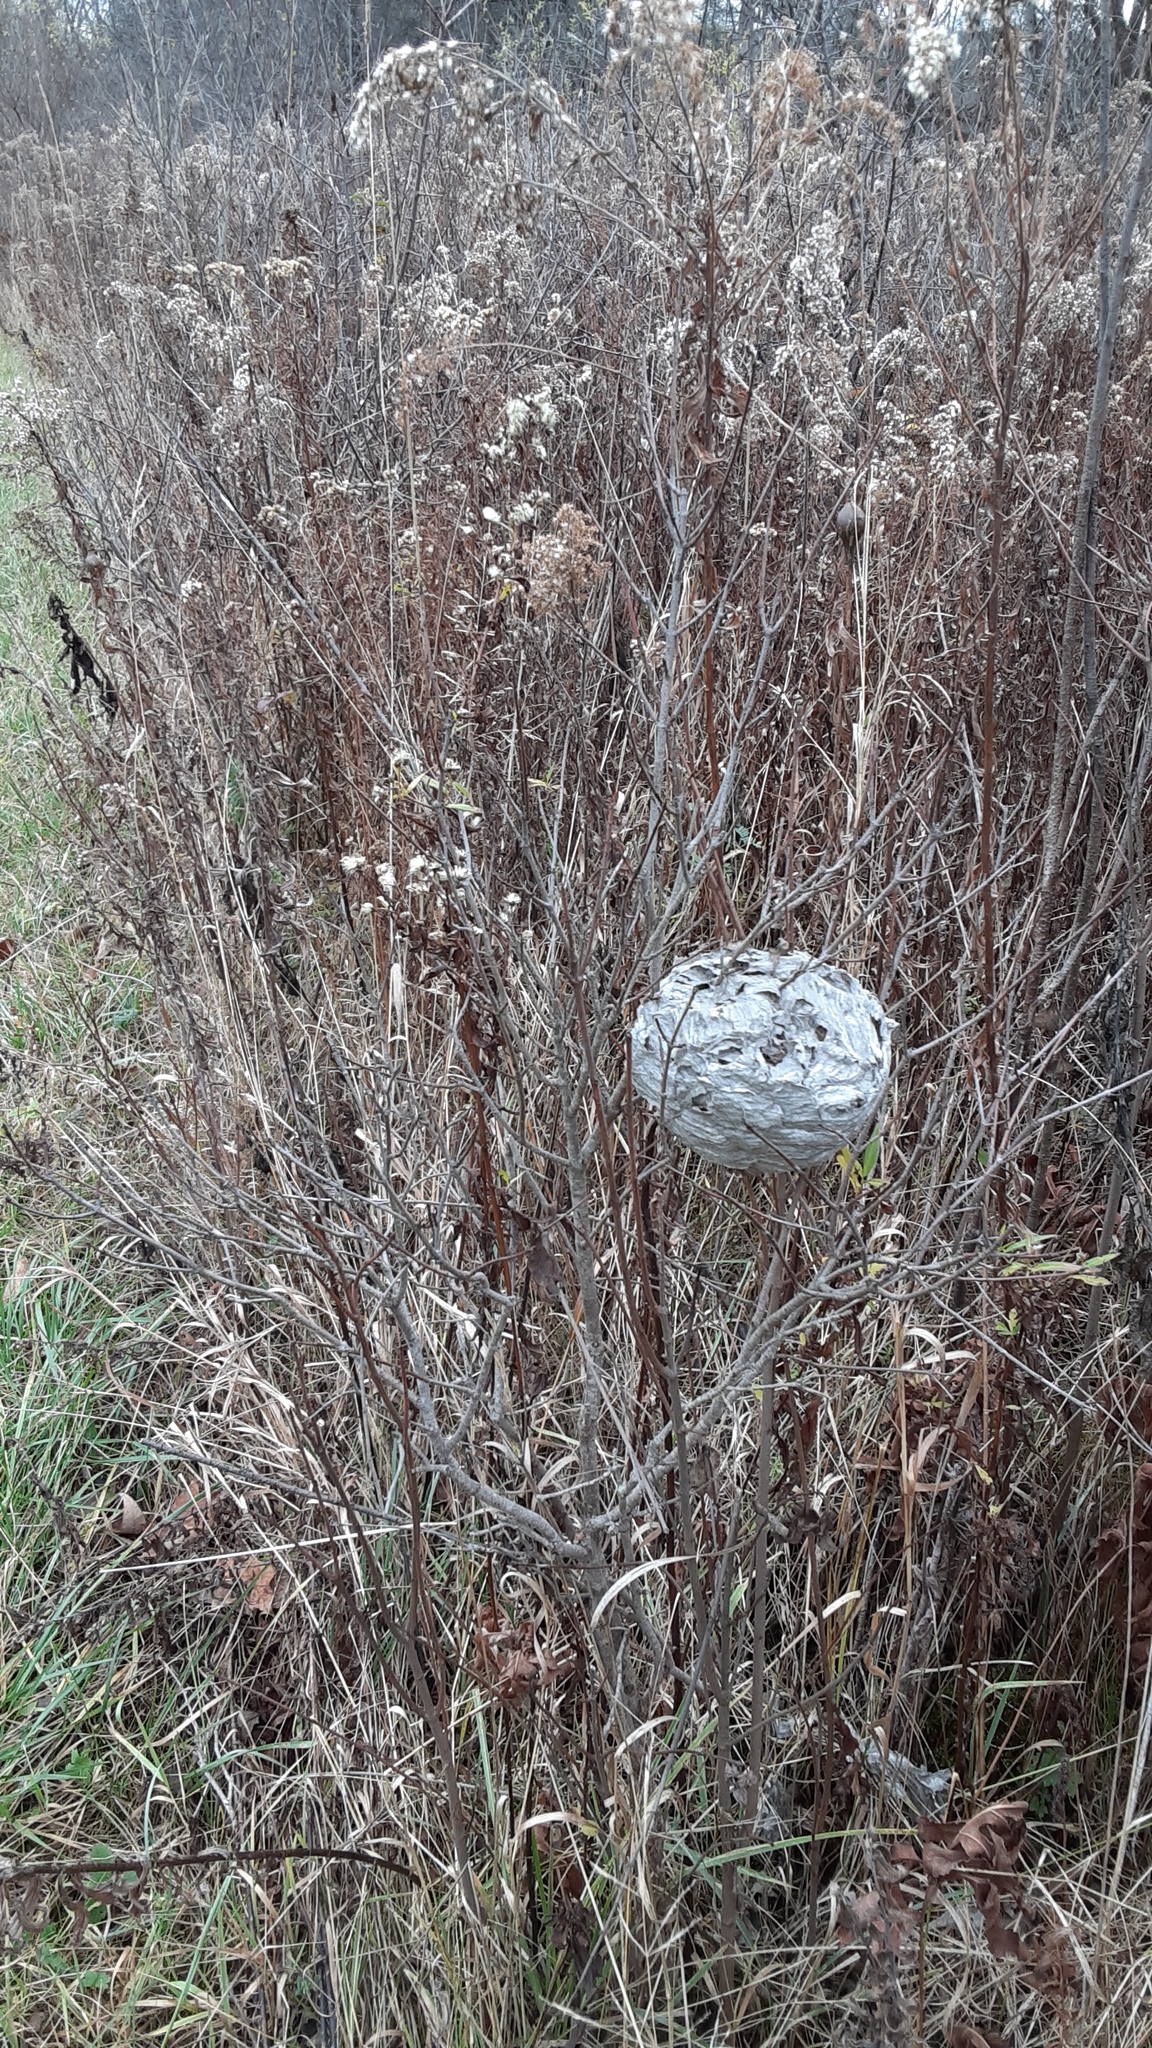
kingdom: Animalia
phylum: Arthropoda
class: Insecta
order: Hymenoptera
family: Vespidae
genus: Dolichovespula
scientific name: Dolichovespula maculata
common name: Bald-faced hornet
